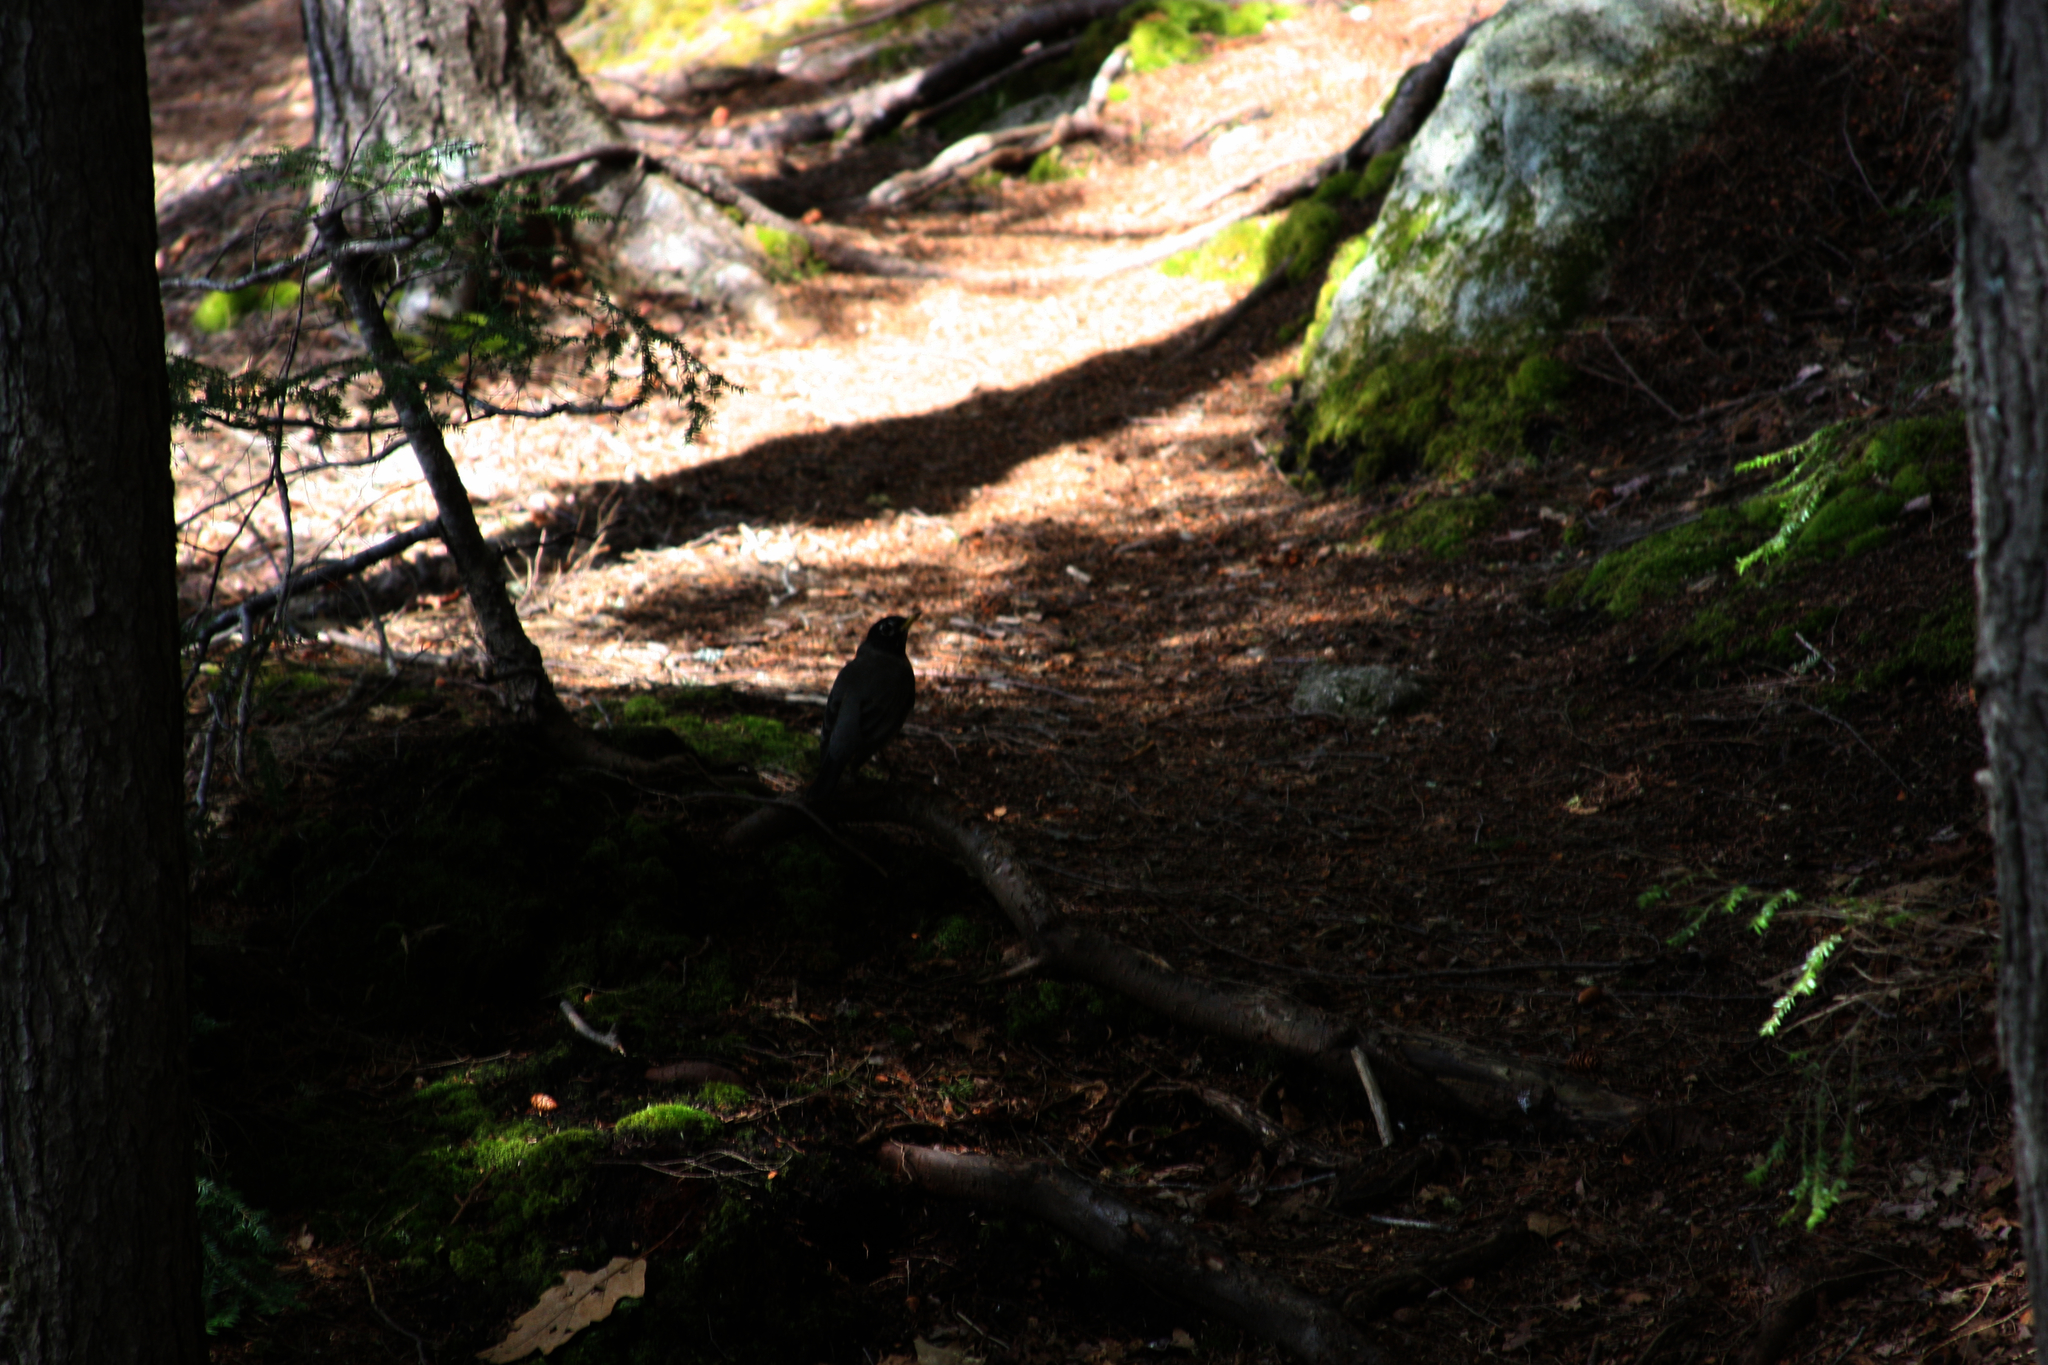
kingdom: Animalia
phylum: Chordata
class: Aves
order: Passeriformes
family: Turdidae
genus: Turdus
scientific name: Turdus migratorius
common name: American robin
